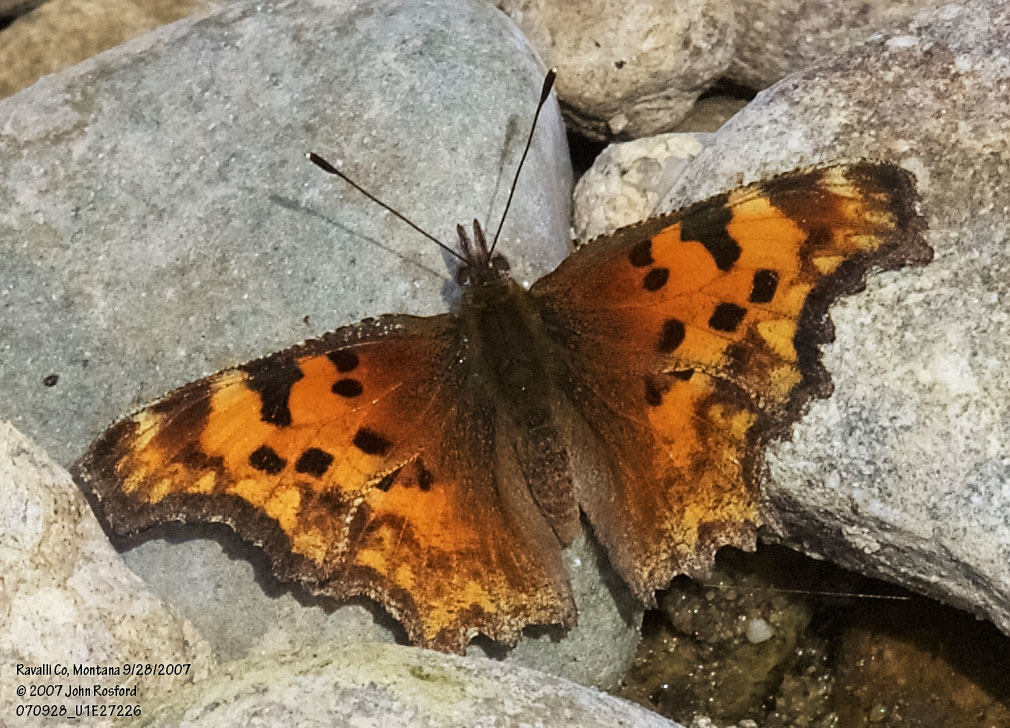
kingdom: Animalia
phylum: Arthropoda
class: Insecta
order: Lepidoptera
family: Nymphalidae
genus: Polygonia
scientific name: Polygonia gracilis
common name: Hoary comma
